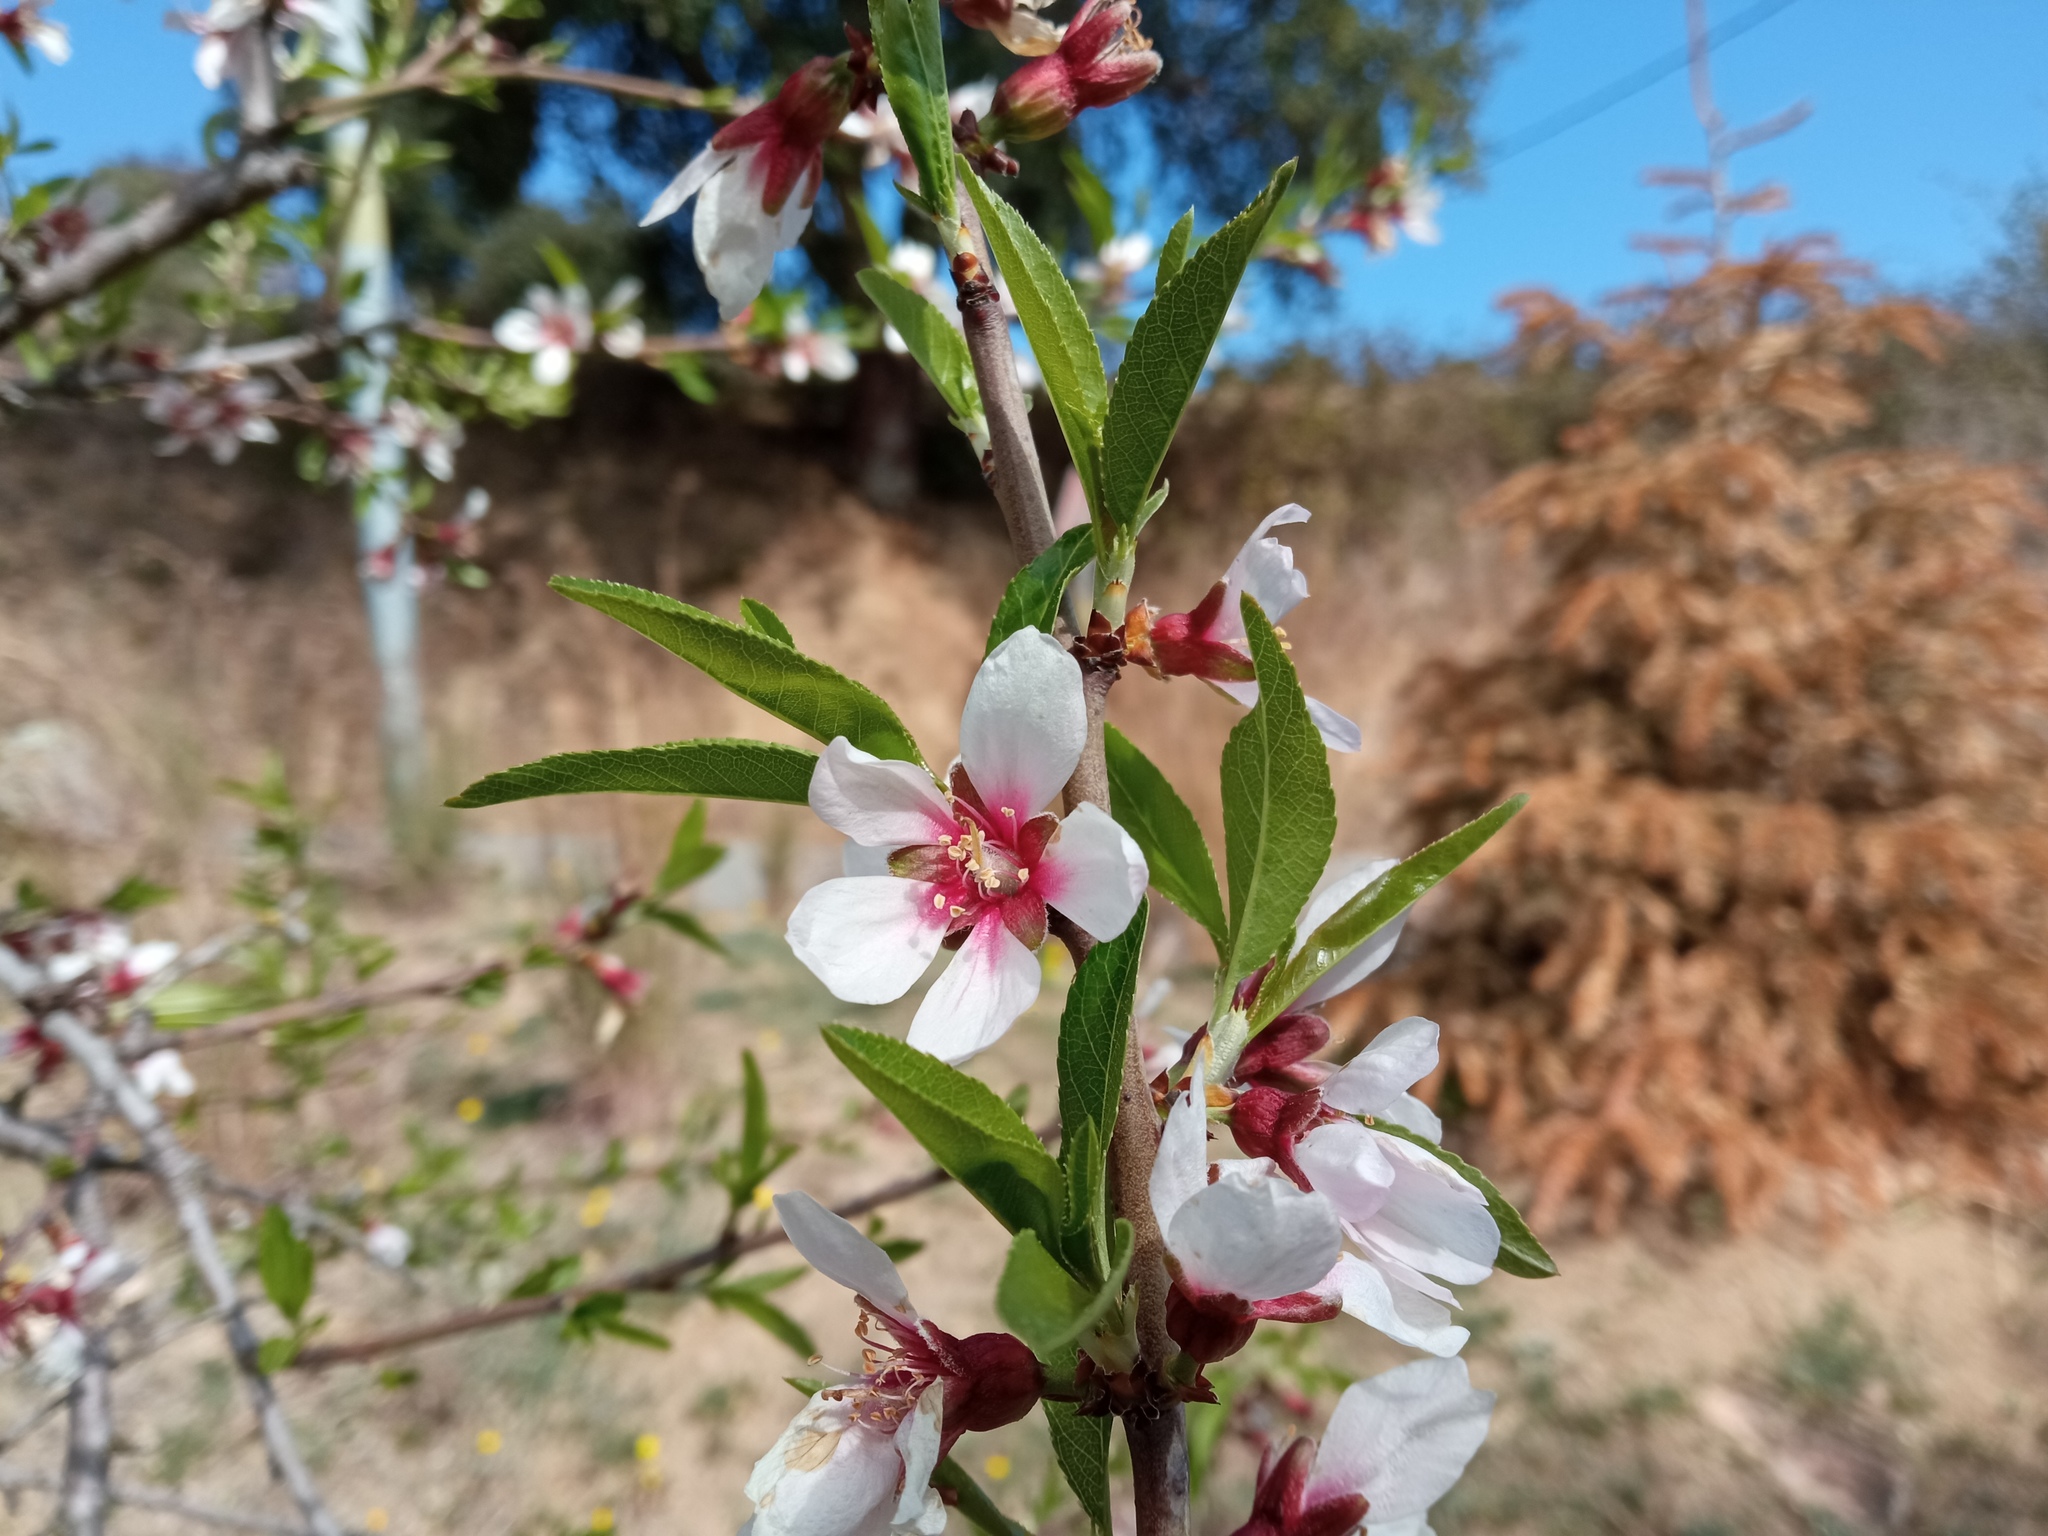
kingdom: Plantae
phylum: Tracheophyta
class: Magnoliopsida
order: Rosales
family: Rosaceae
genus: Prunus
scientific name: Prunus amygdalus
